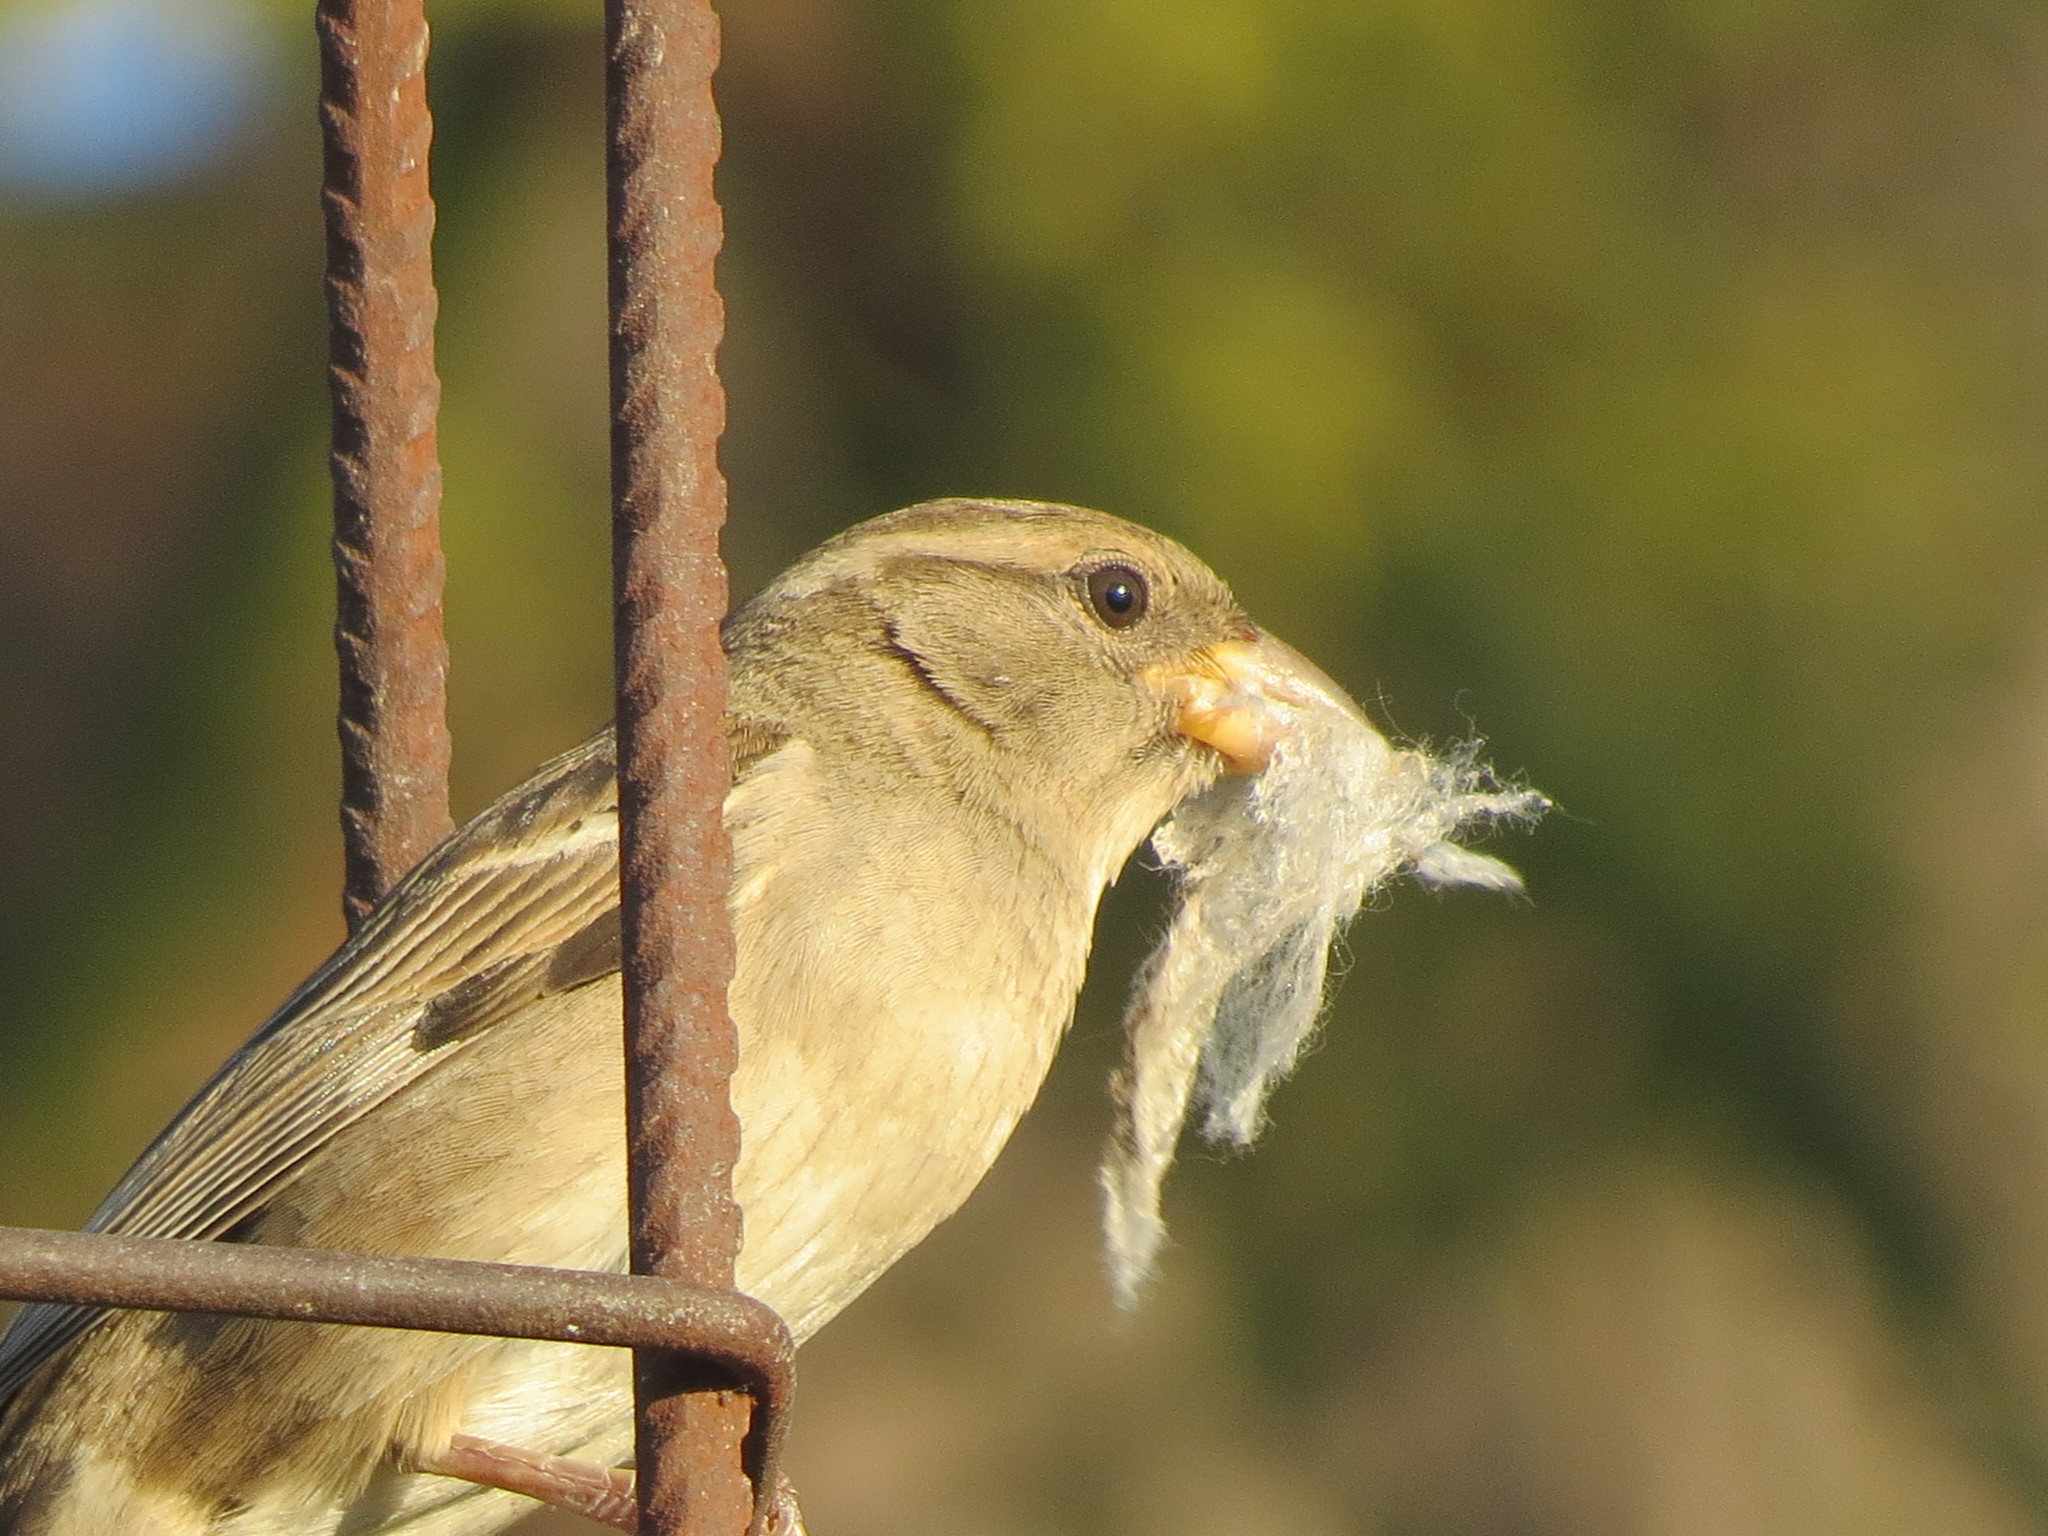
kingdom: Animalia
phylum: Chordata
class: Aves
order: Passeriformes
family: Passeridae
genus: Passer
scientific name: Passer domesticus
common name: House sparrow
